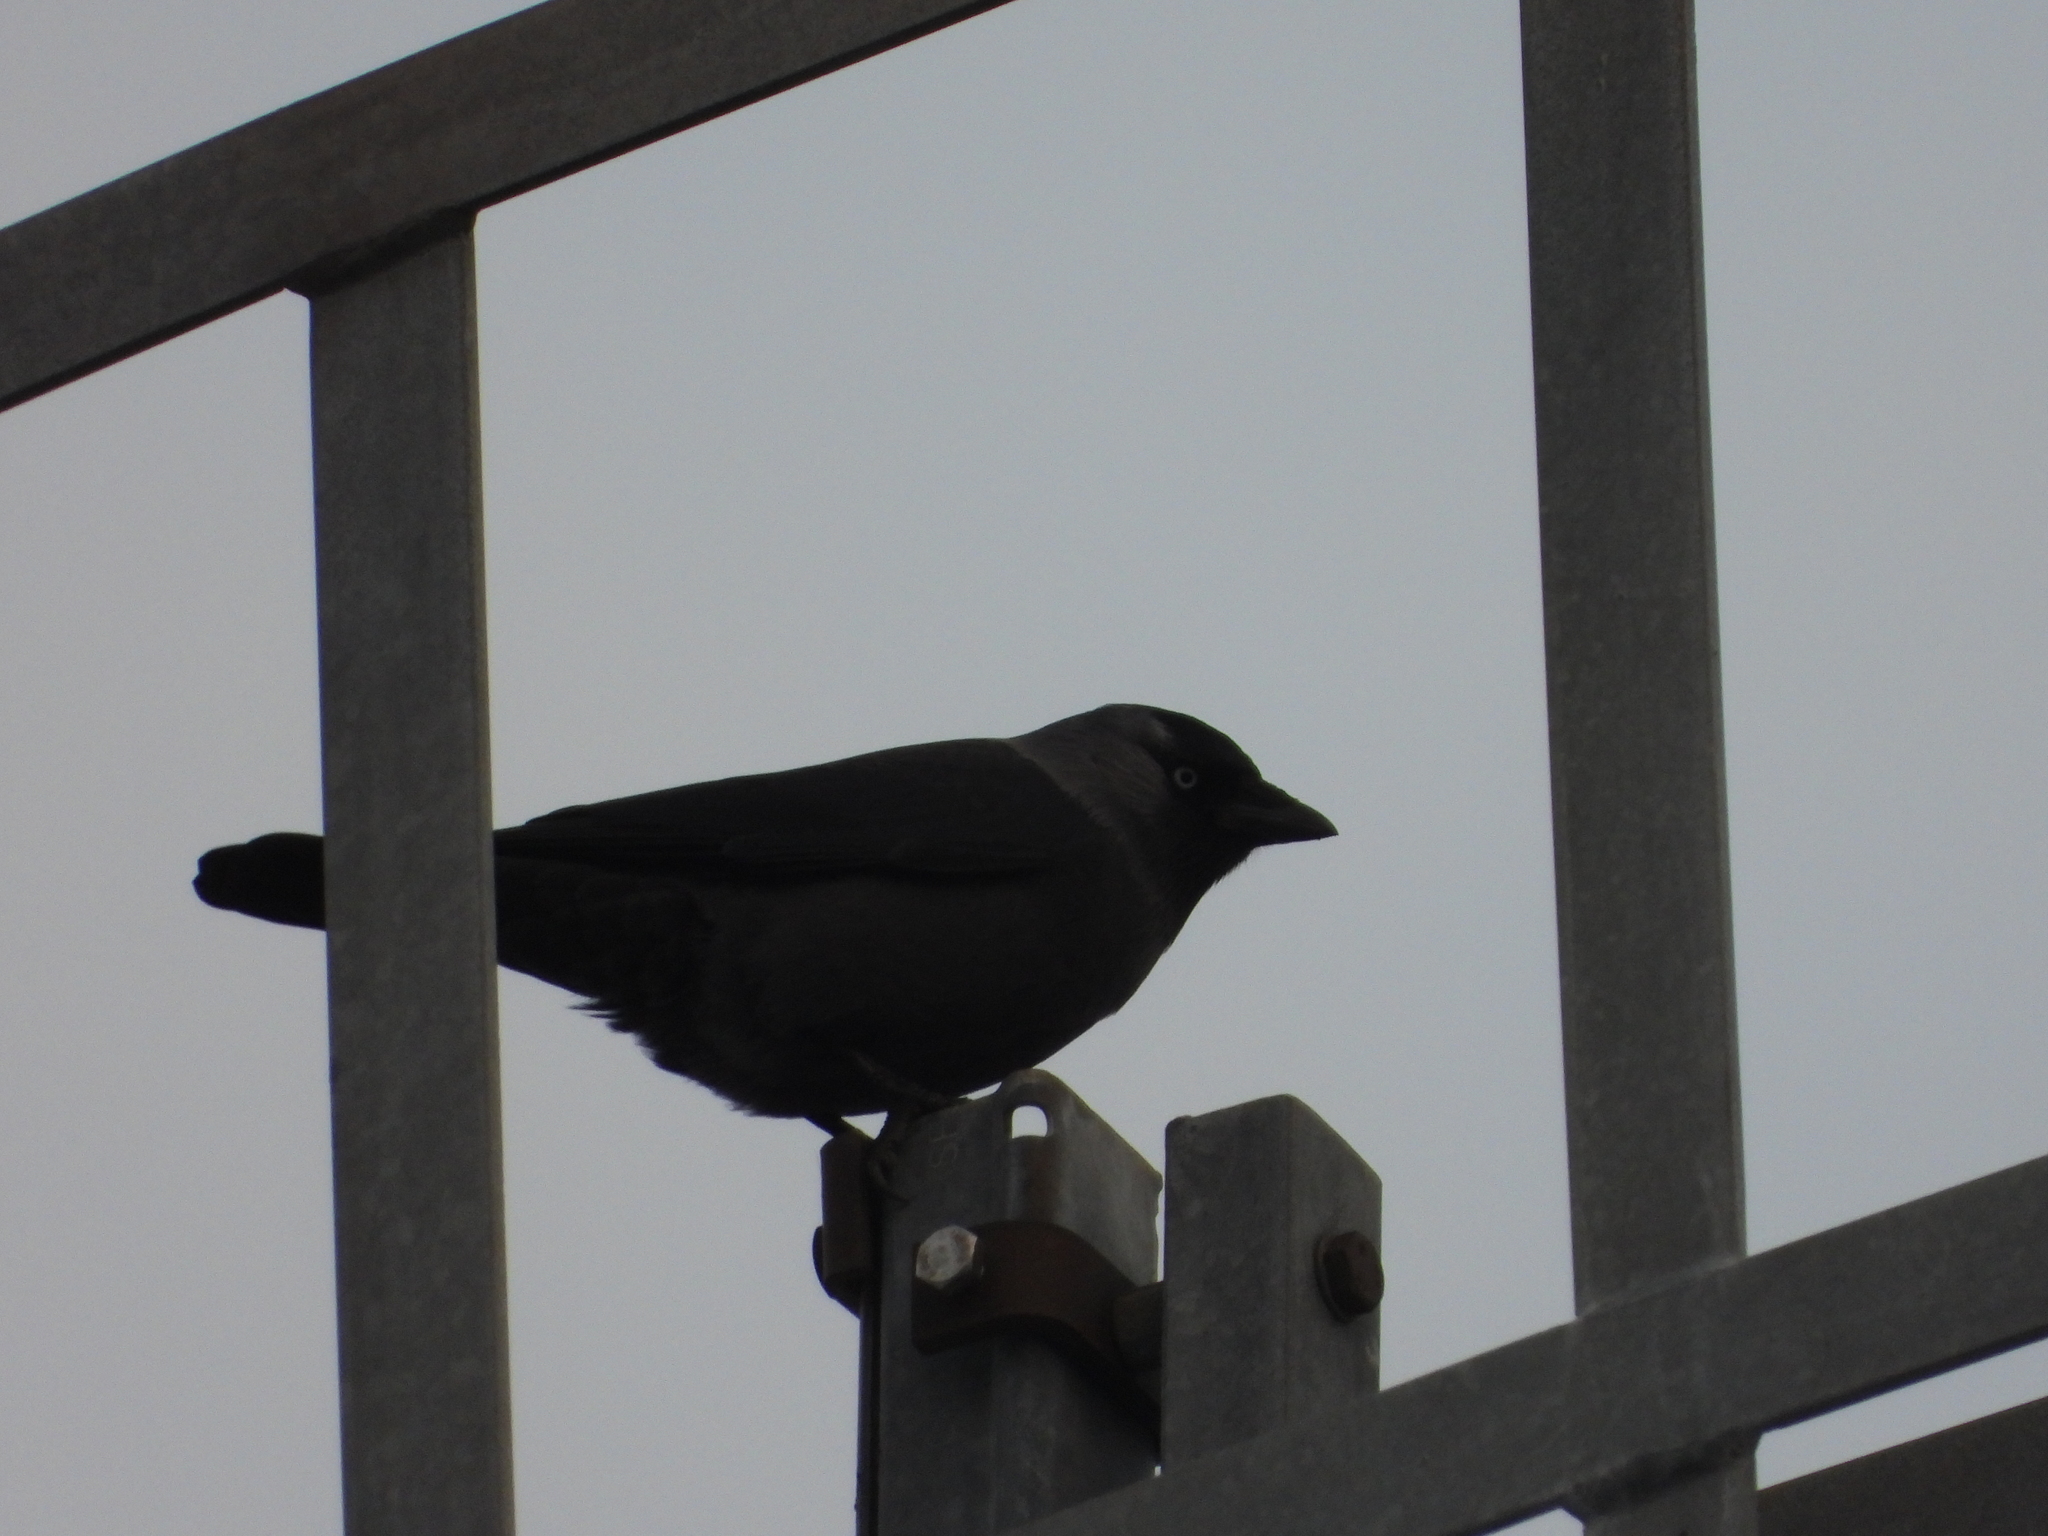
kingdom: Animalia
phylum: Chordata
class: Aves
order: Passeriformes
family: Corvidae
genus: Coloeus
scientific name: Coloeus monedula
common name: Western jackdaw
